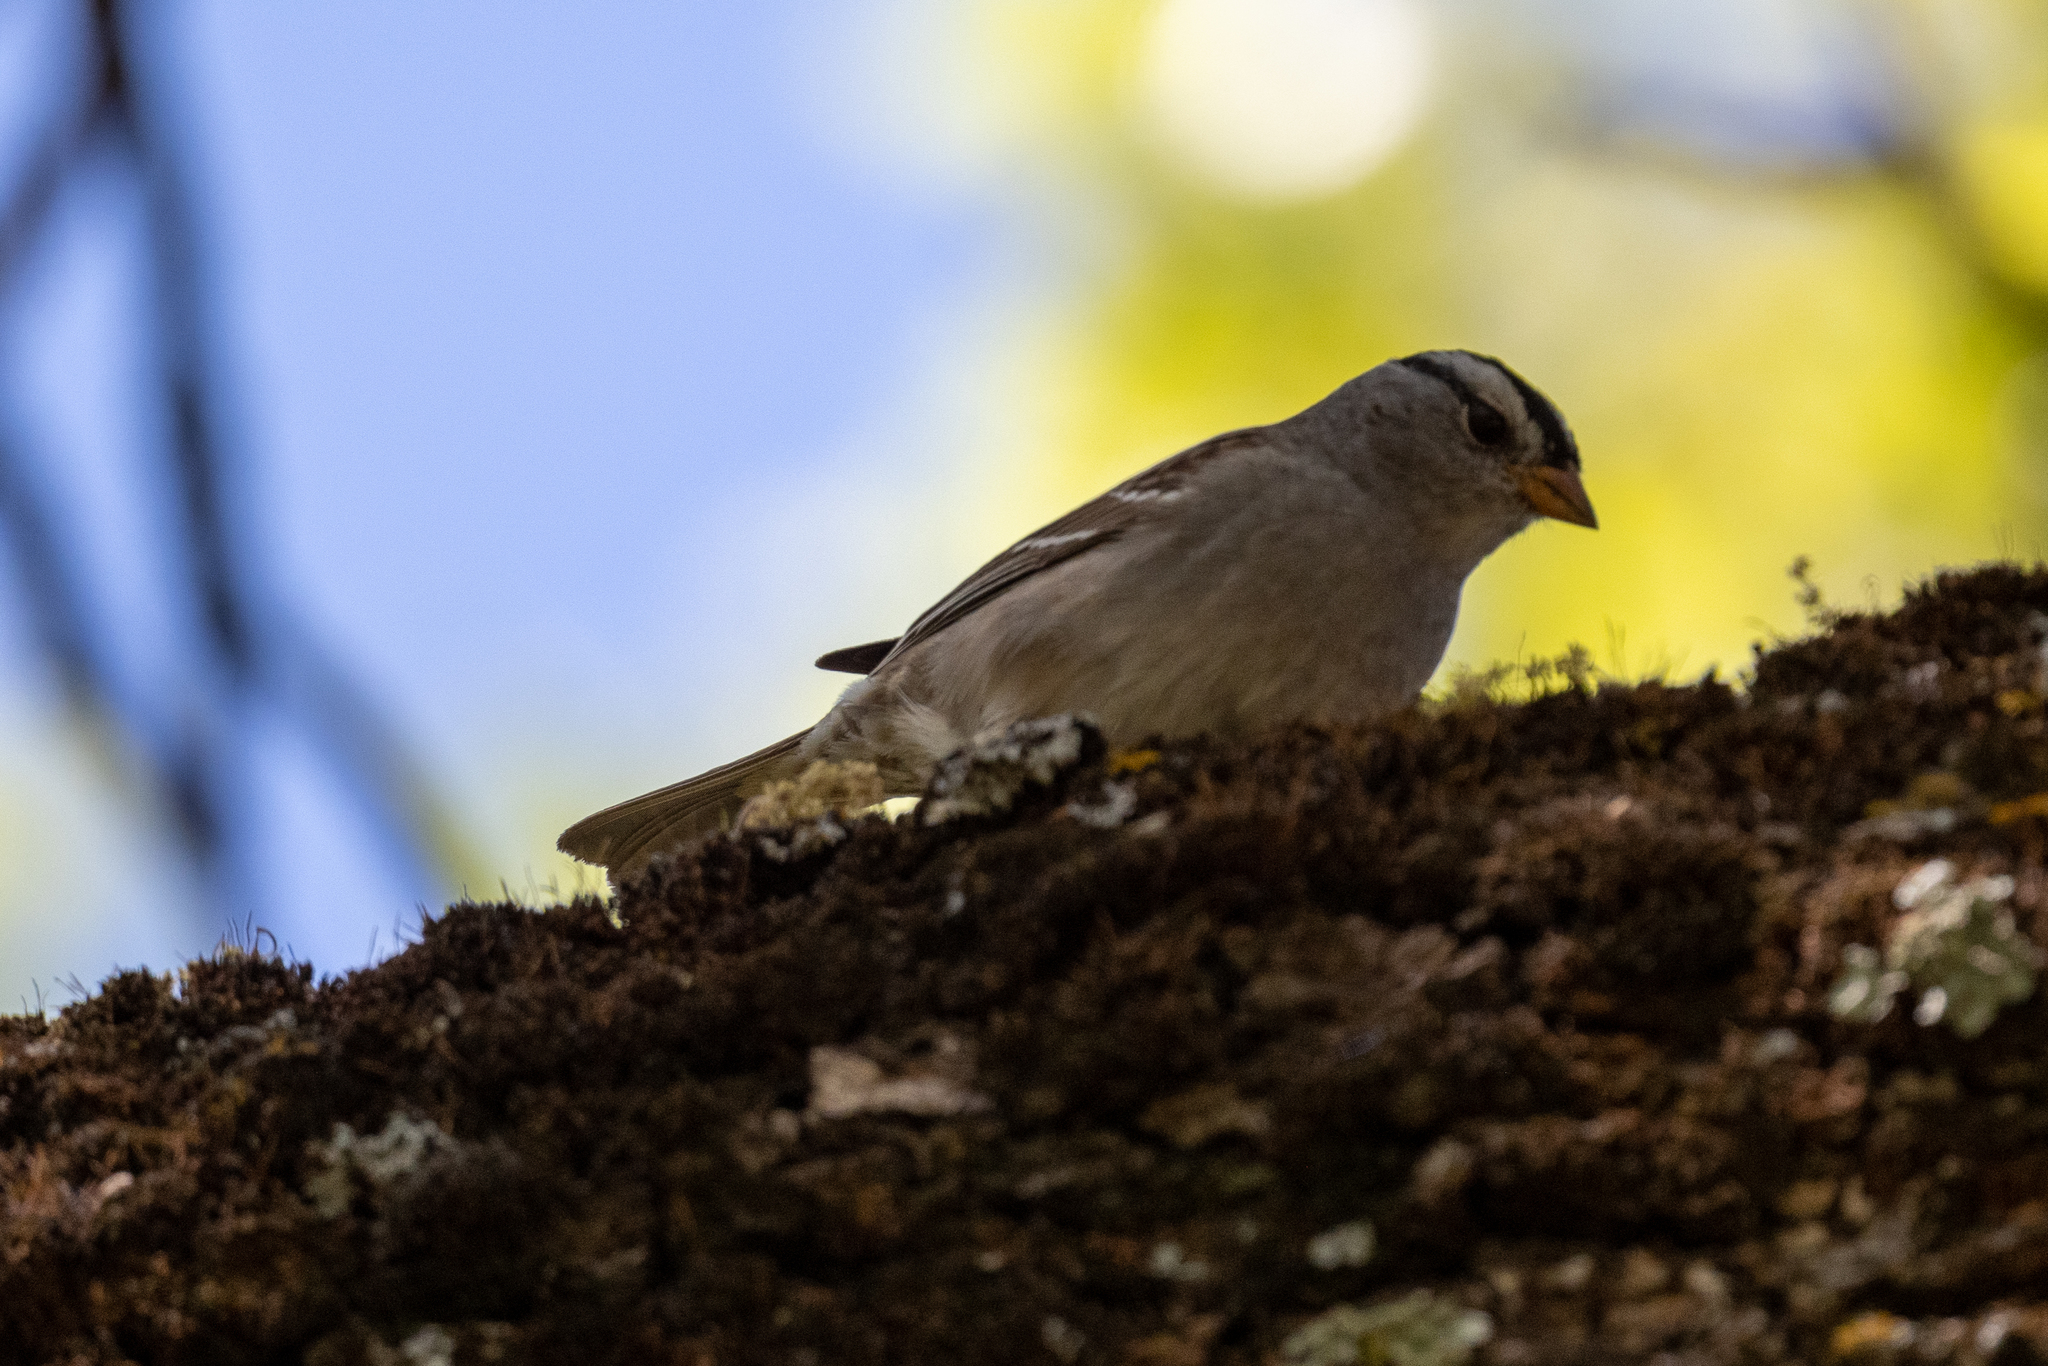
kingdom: Animalia
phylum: Chordata
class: Aves
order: Passeriformes
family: Passerellidae
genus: Zonotrichia
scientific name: Zonotrichia leucophrys
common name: White-crowned sparrow
